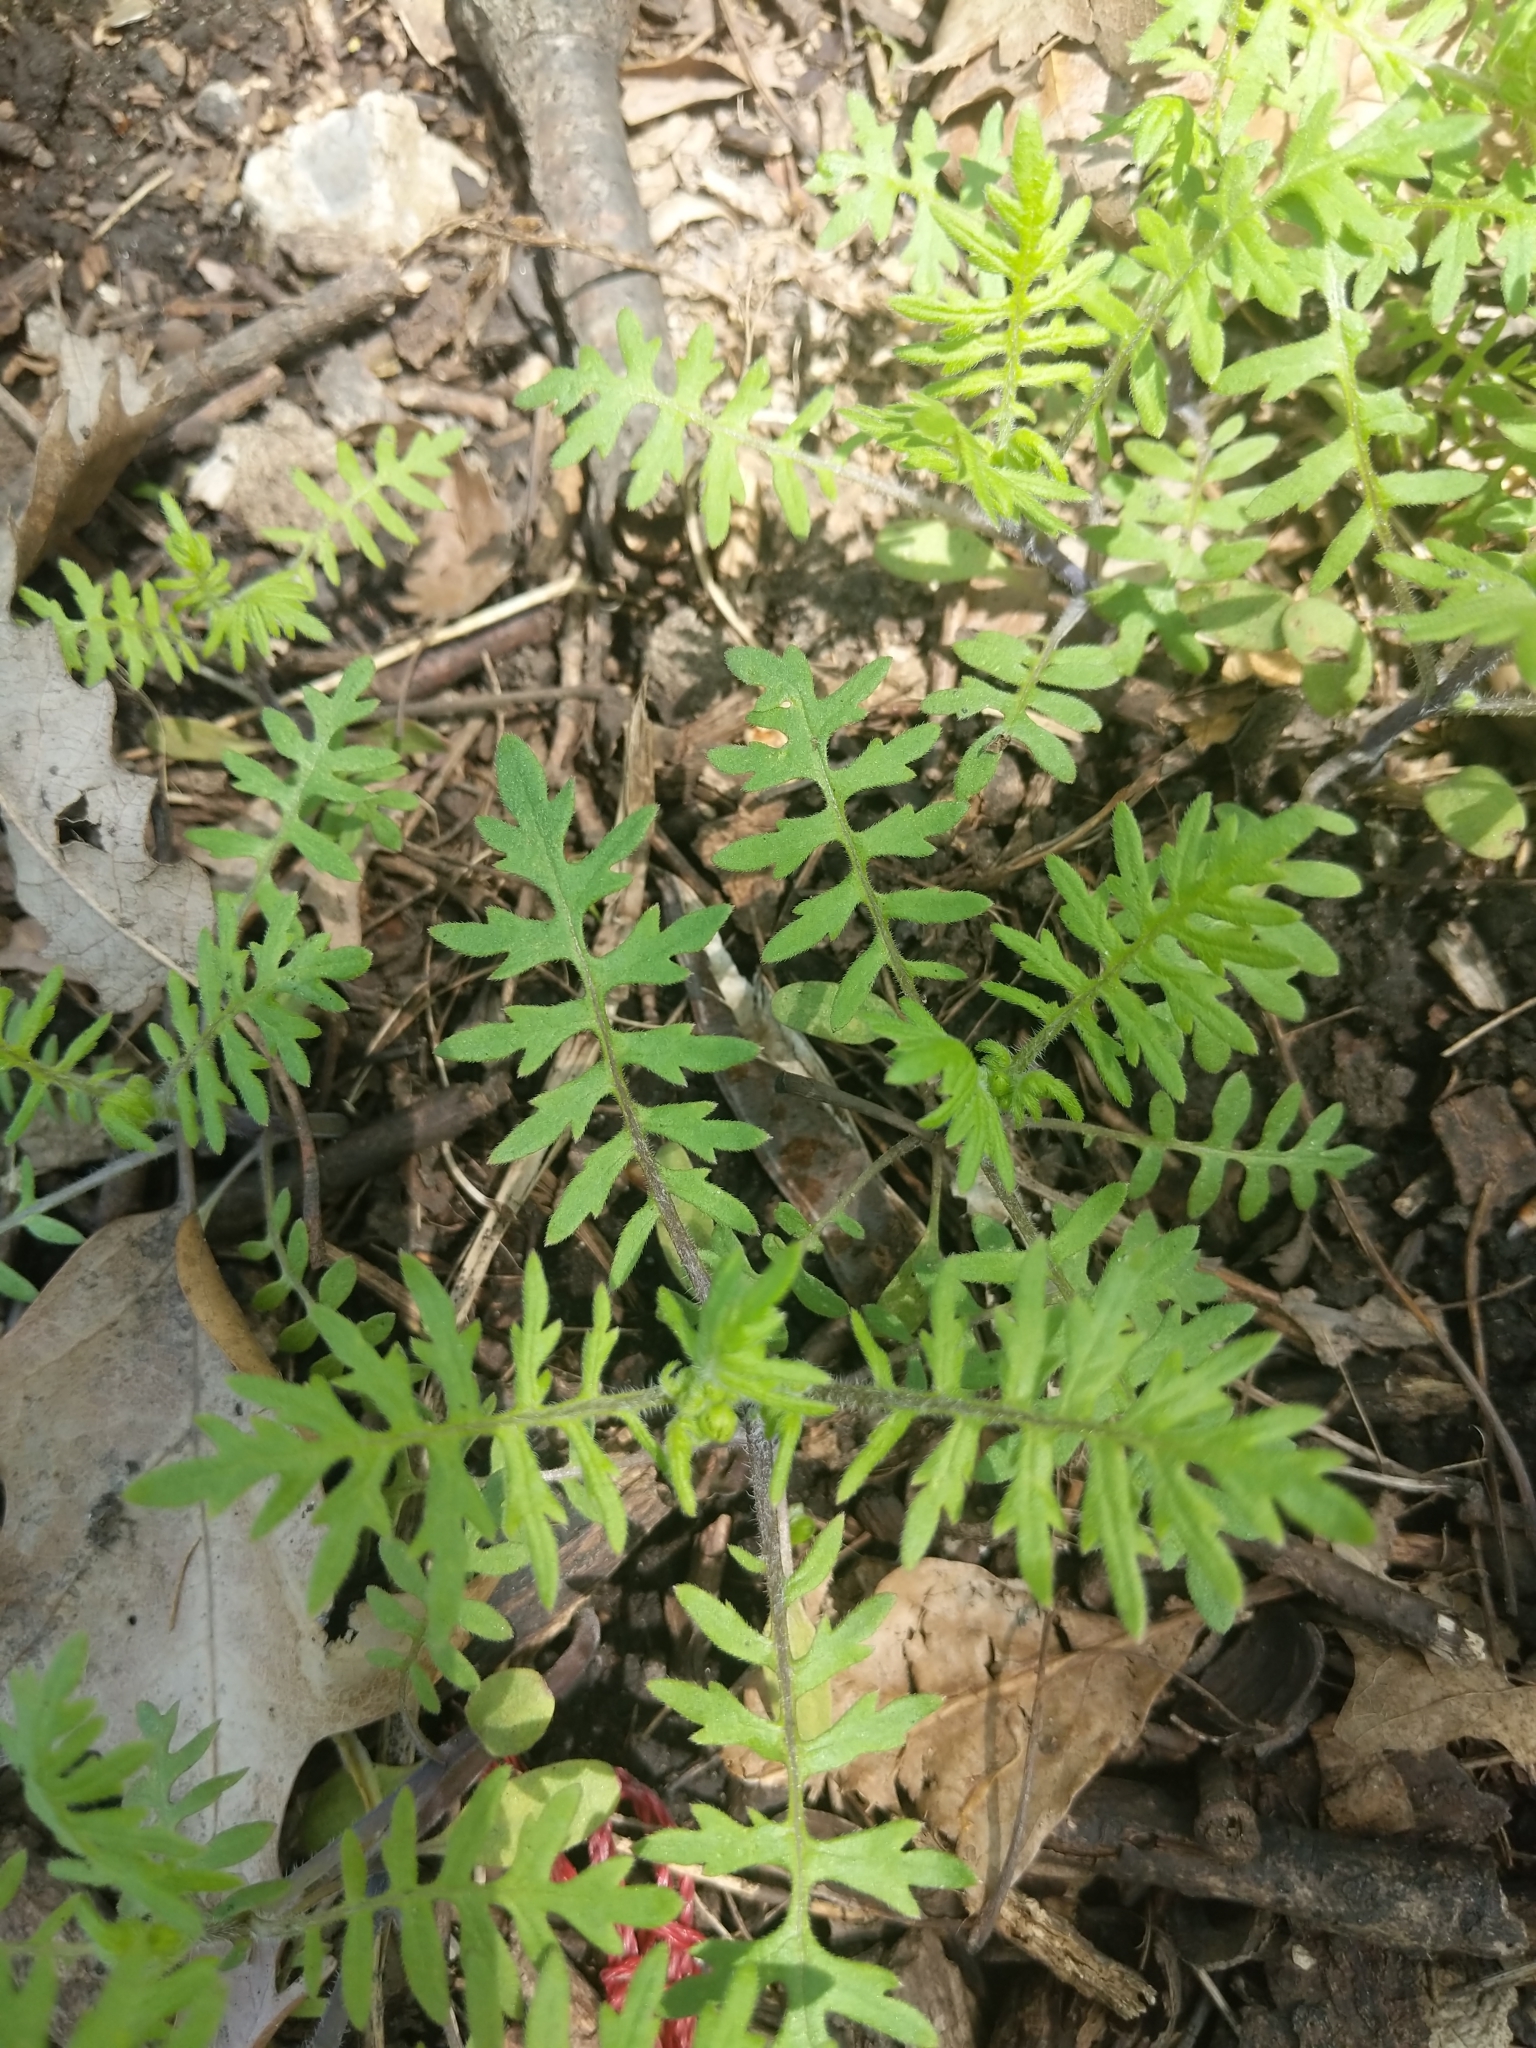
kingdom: Plantae
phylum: Tracheophyta
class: Magnoliopsida
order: Boraginales
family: Hydrophyllaceae
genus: Ellisia
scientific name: Ellisia nyctelea
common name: Aunt lucy
